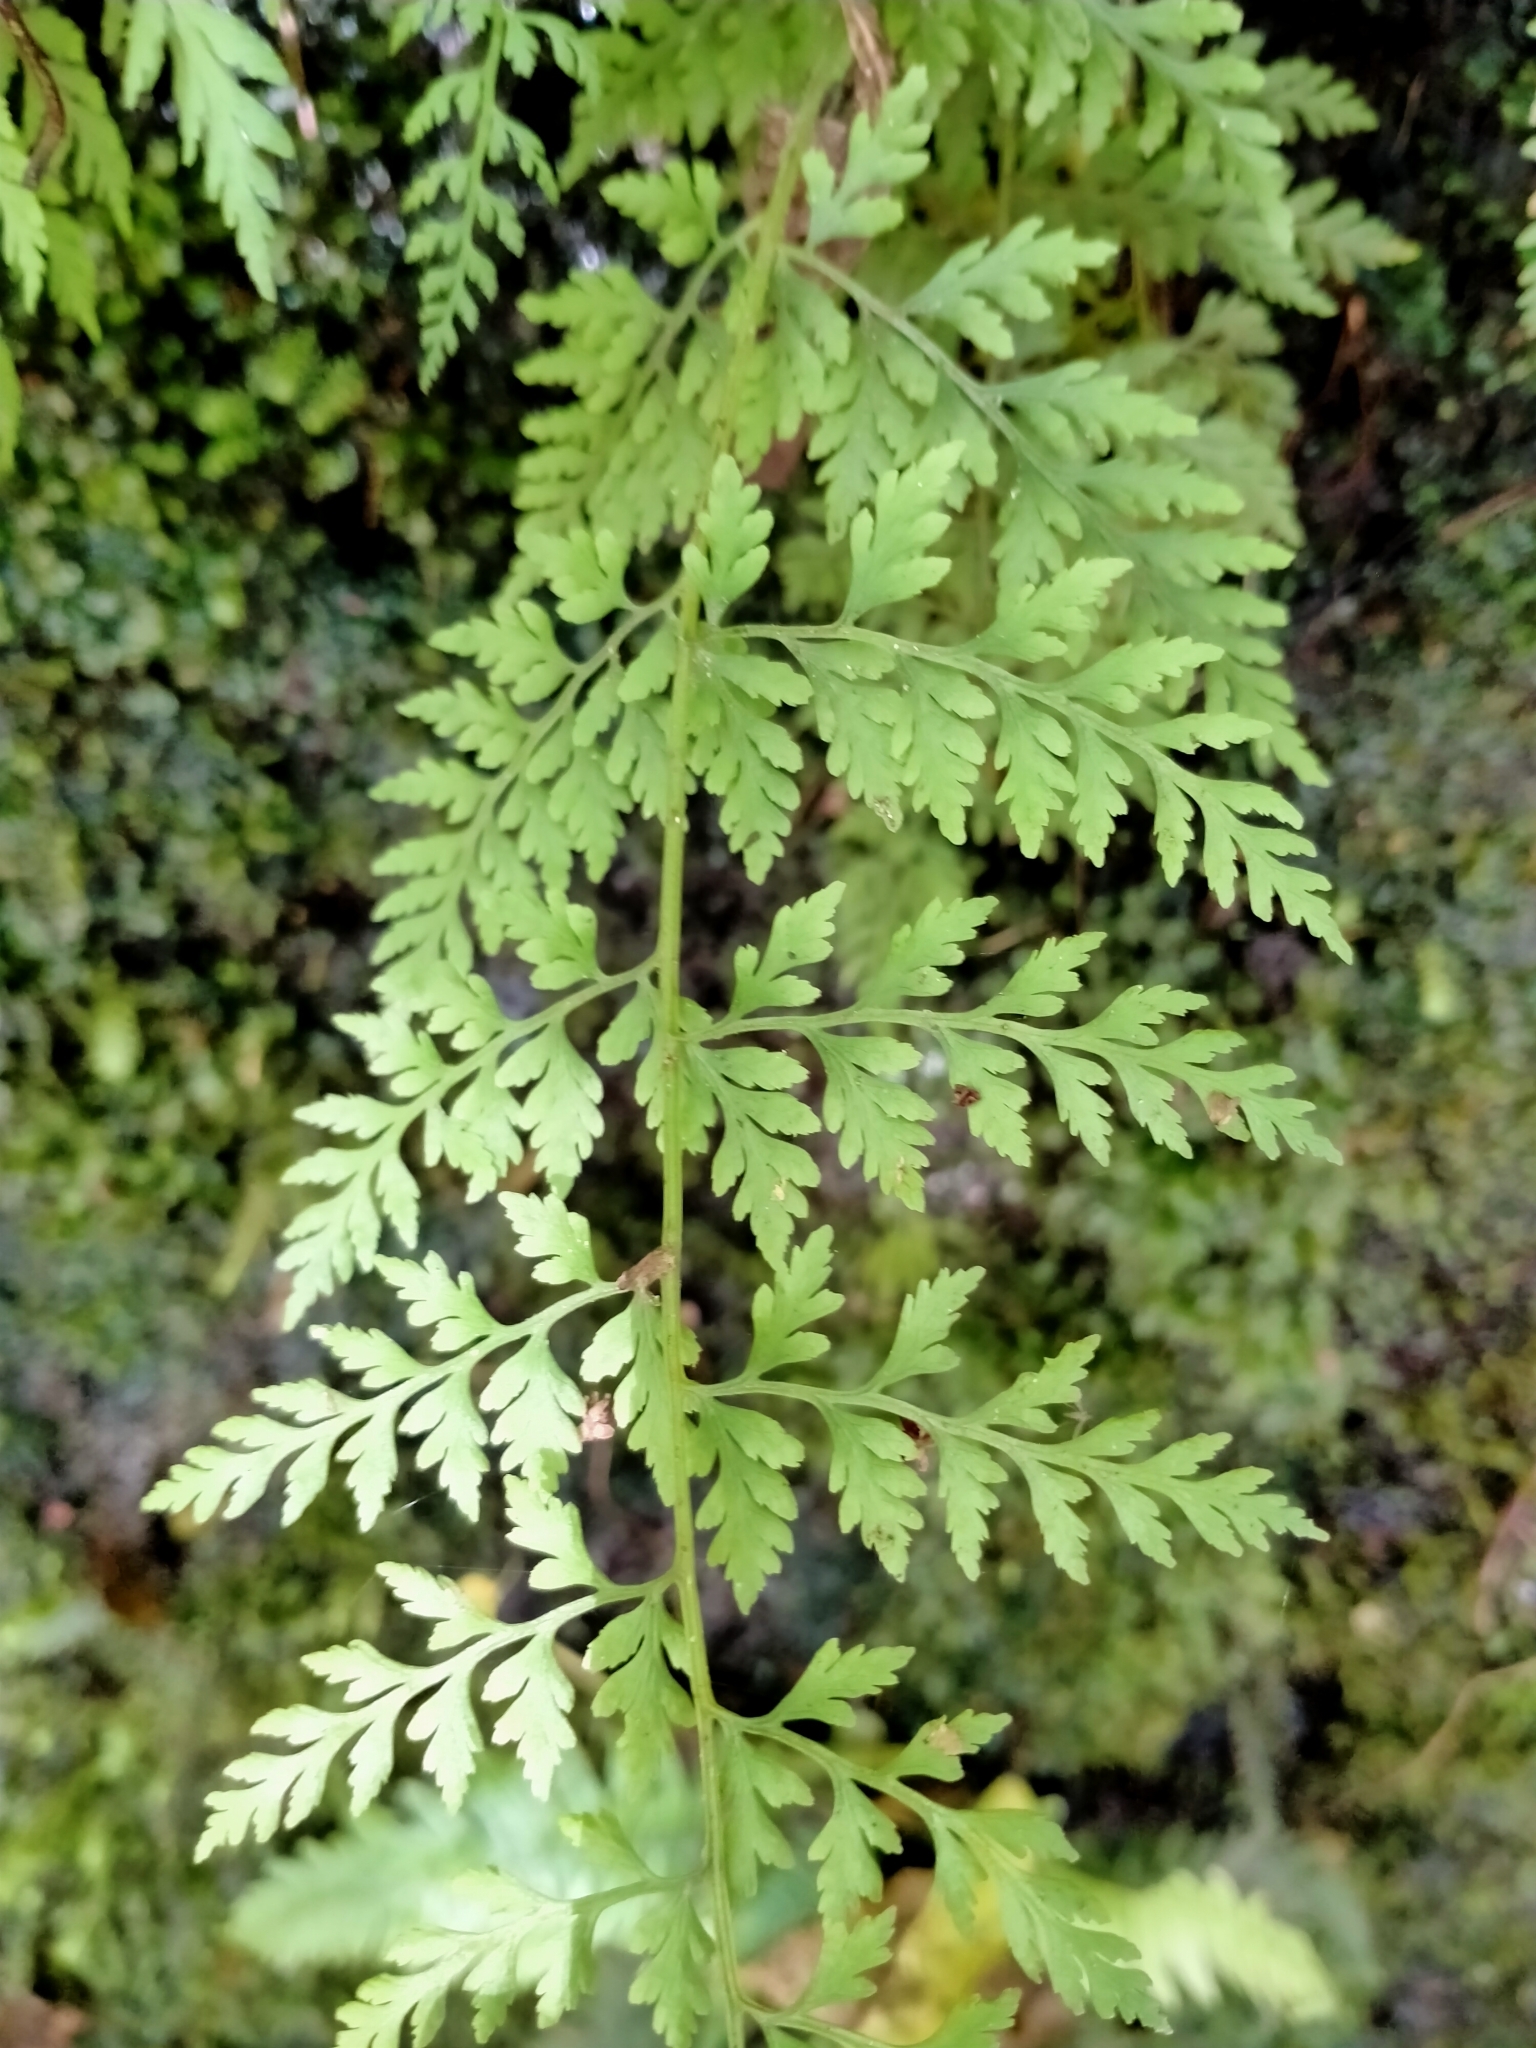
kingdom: Plantae
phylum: Tracheophyta
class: Polypodiopsida
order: Polypodiales
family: Cystopteridaceae
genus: Cystopteris
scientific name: Cystopteris fragilis
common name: Brittle bladder fern
